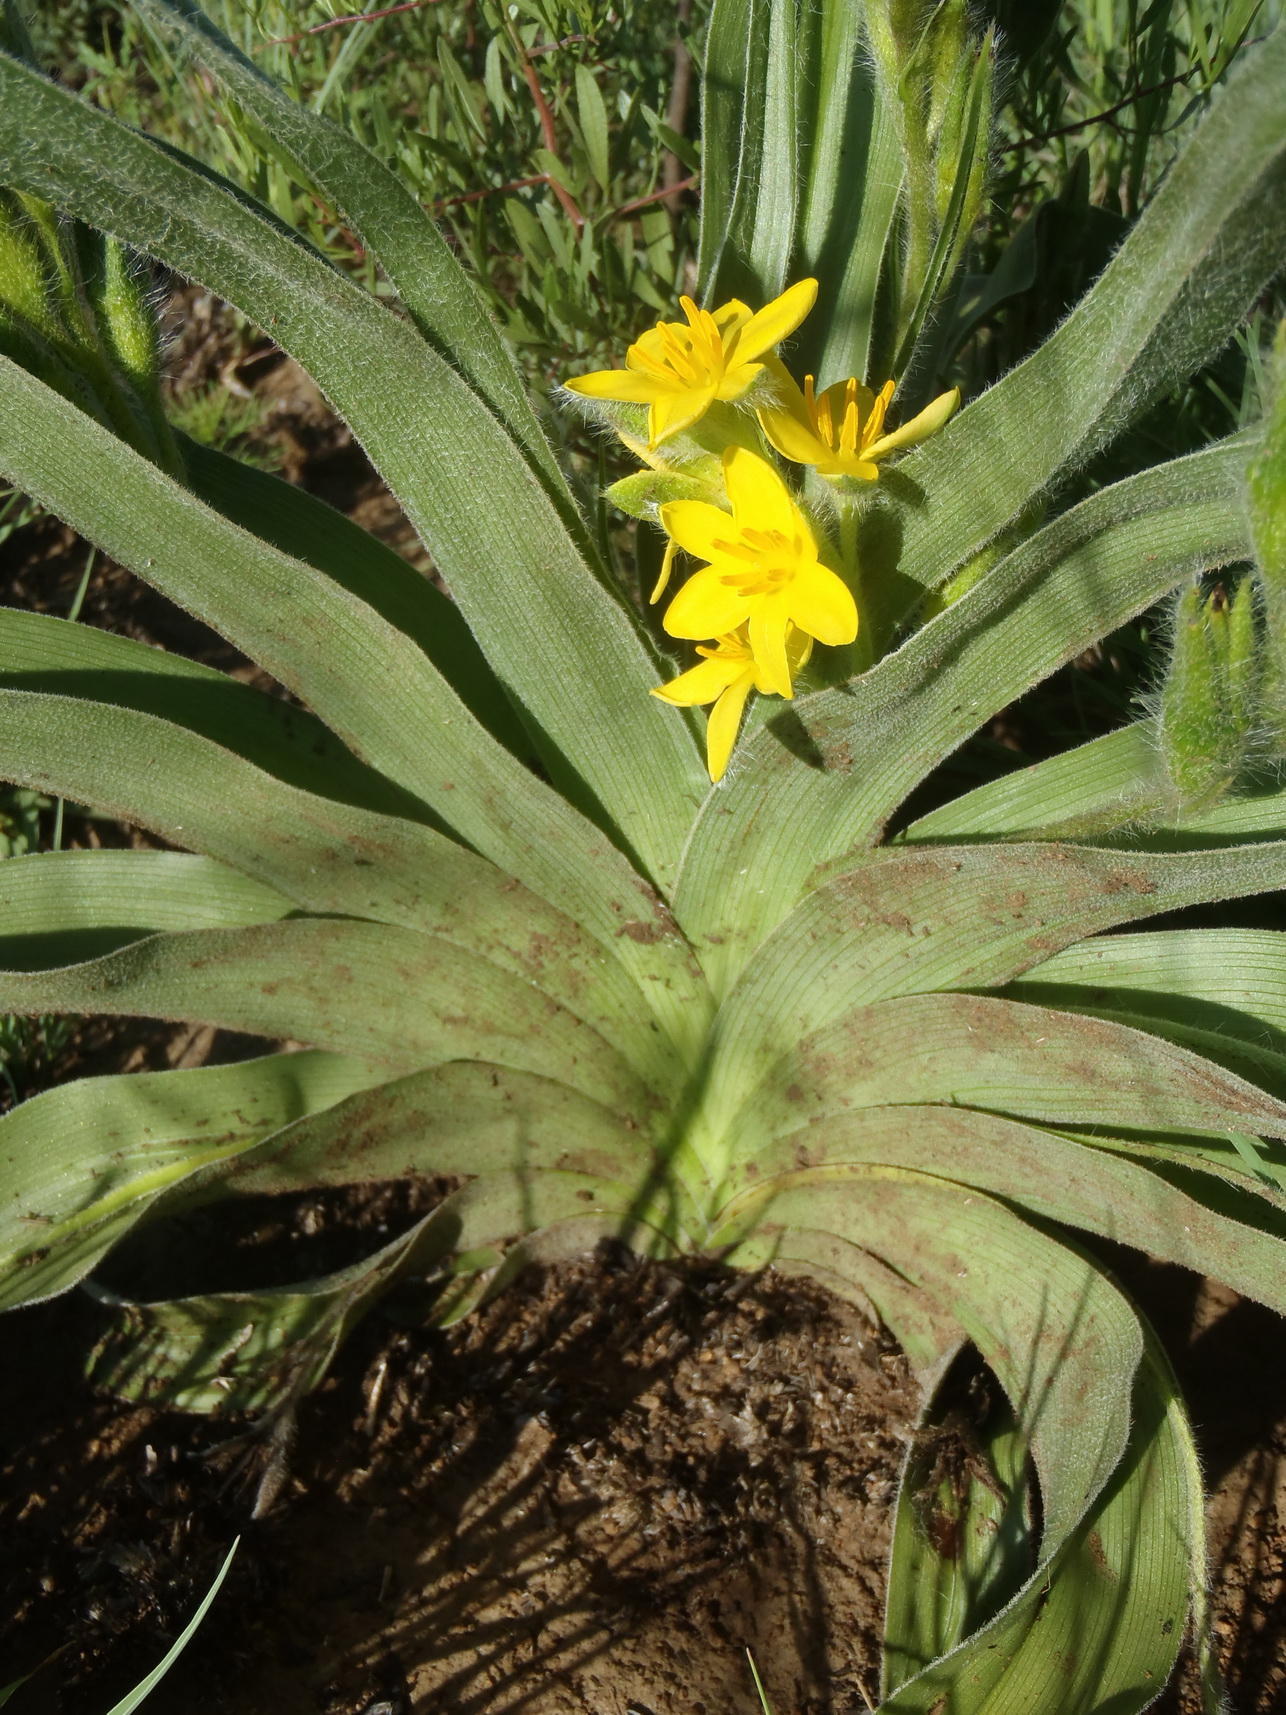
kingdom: Plantae
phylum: Tracheophyta
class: Liliopsida
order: Asparagales
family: Hypoxidaceae
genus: Hypoxis
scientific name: Hypoxis hemerocallidea
